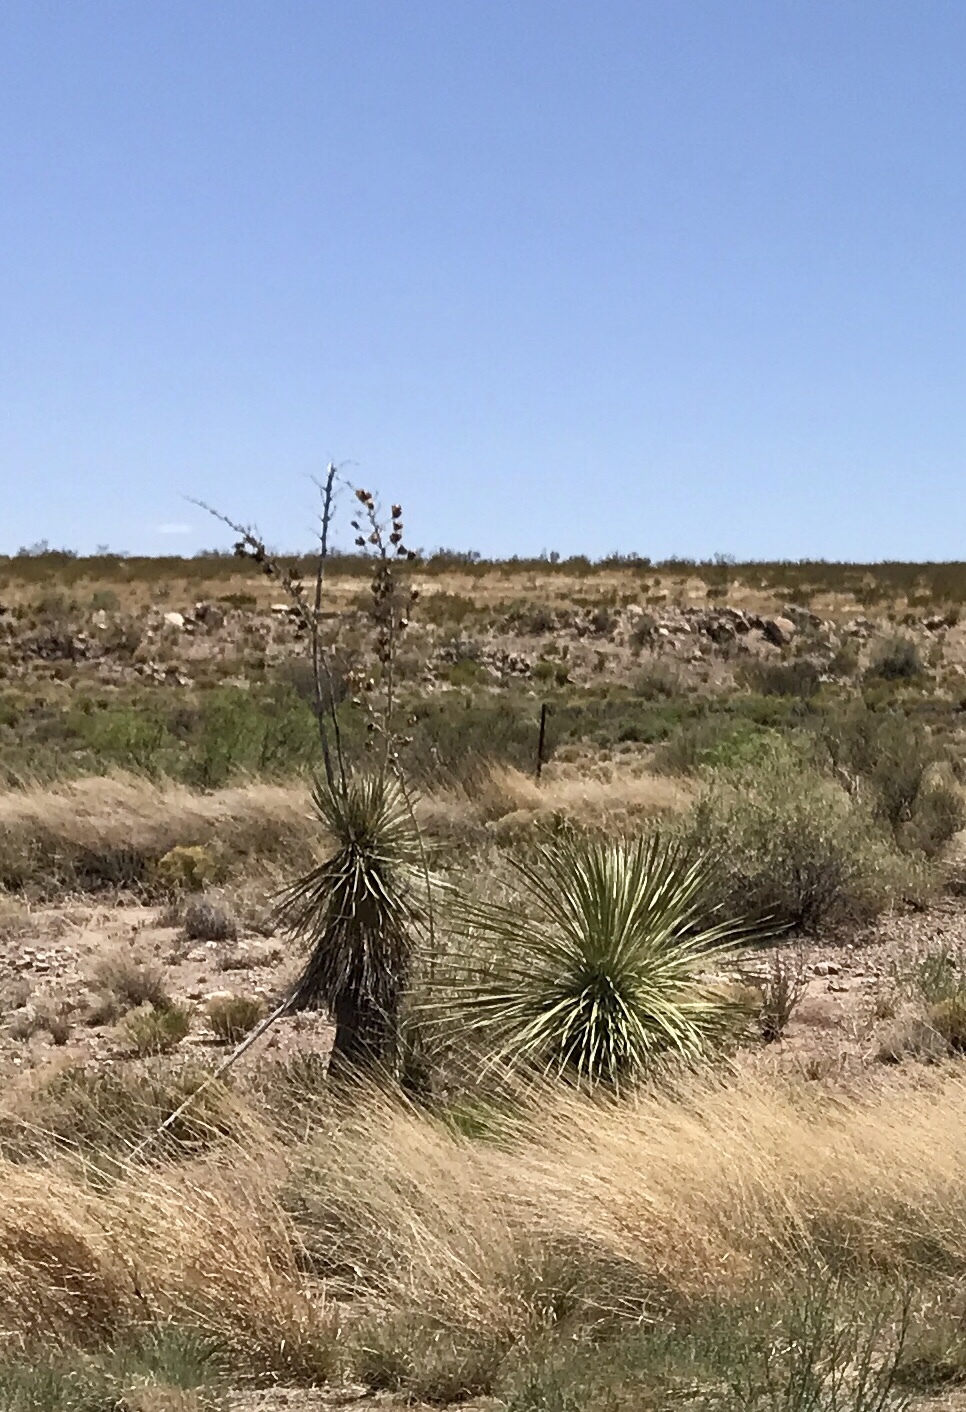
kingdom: Plantae
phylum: Tracheophyta
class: Liliopsida
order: Asparagales
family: Asparagaceae
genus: Yucca
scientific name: Yucca elata
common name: Palmella
